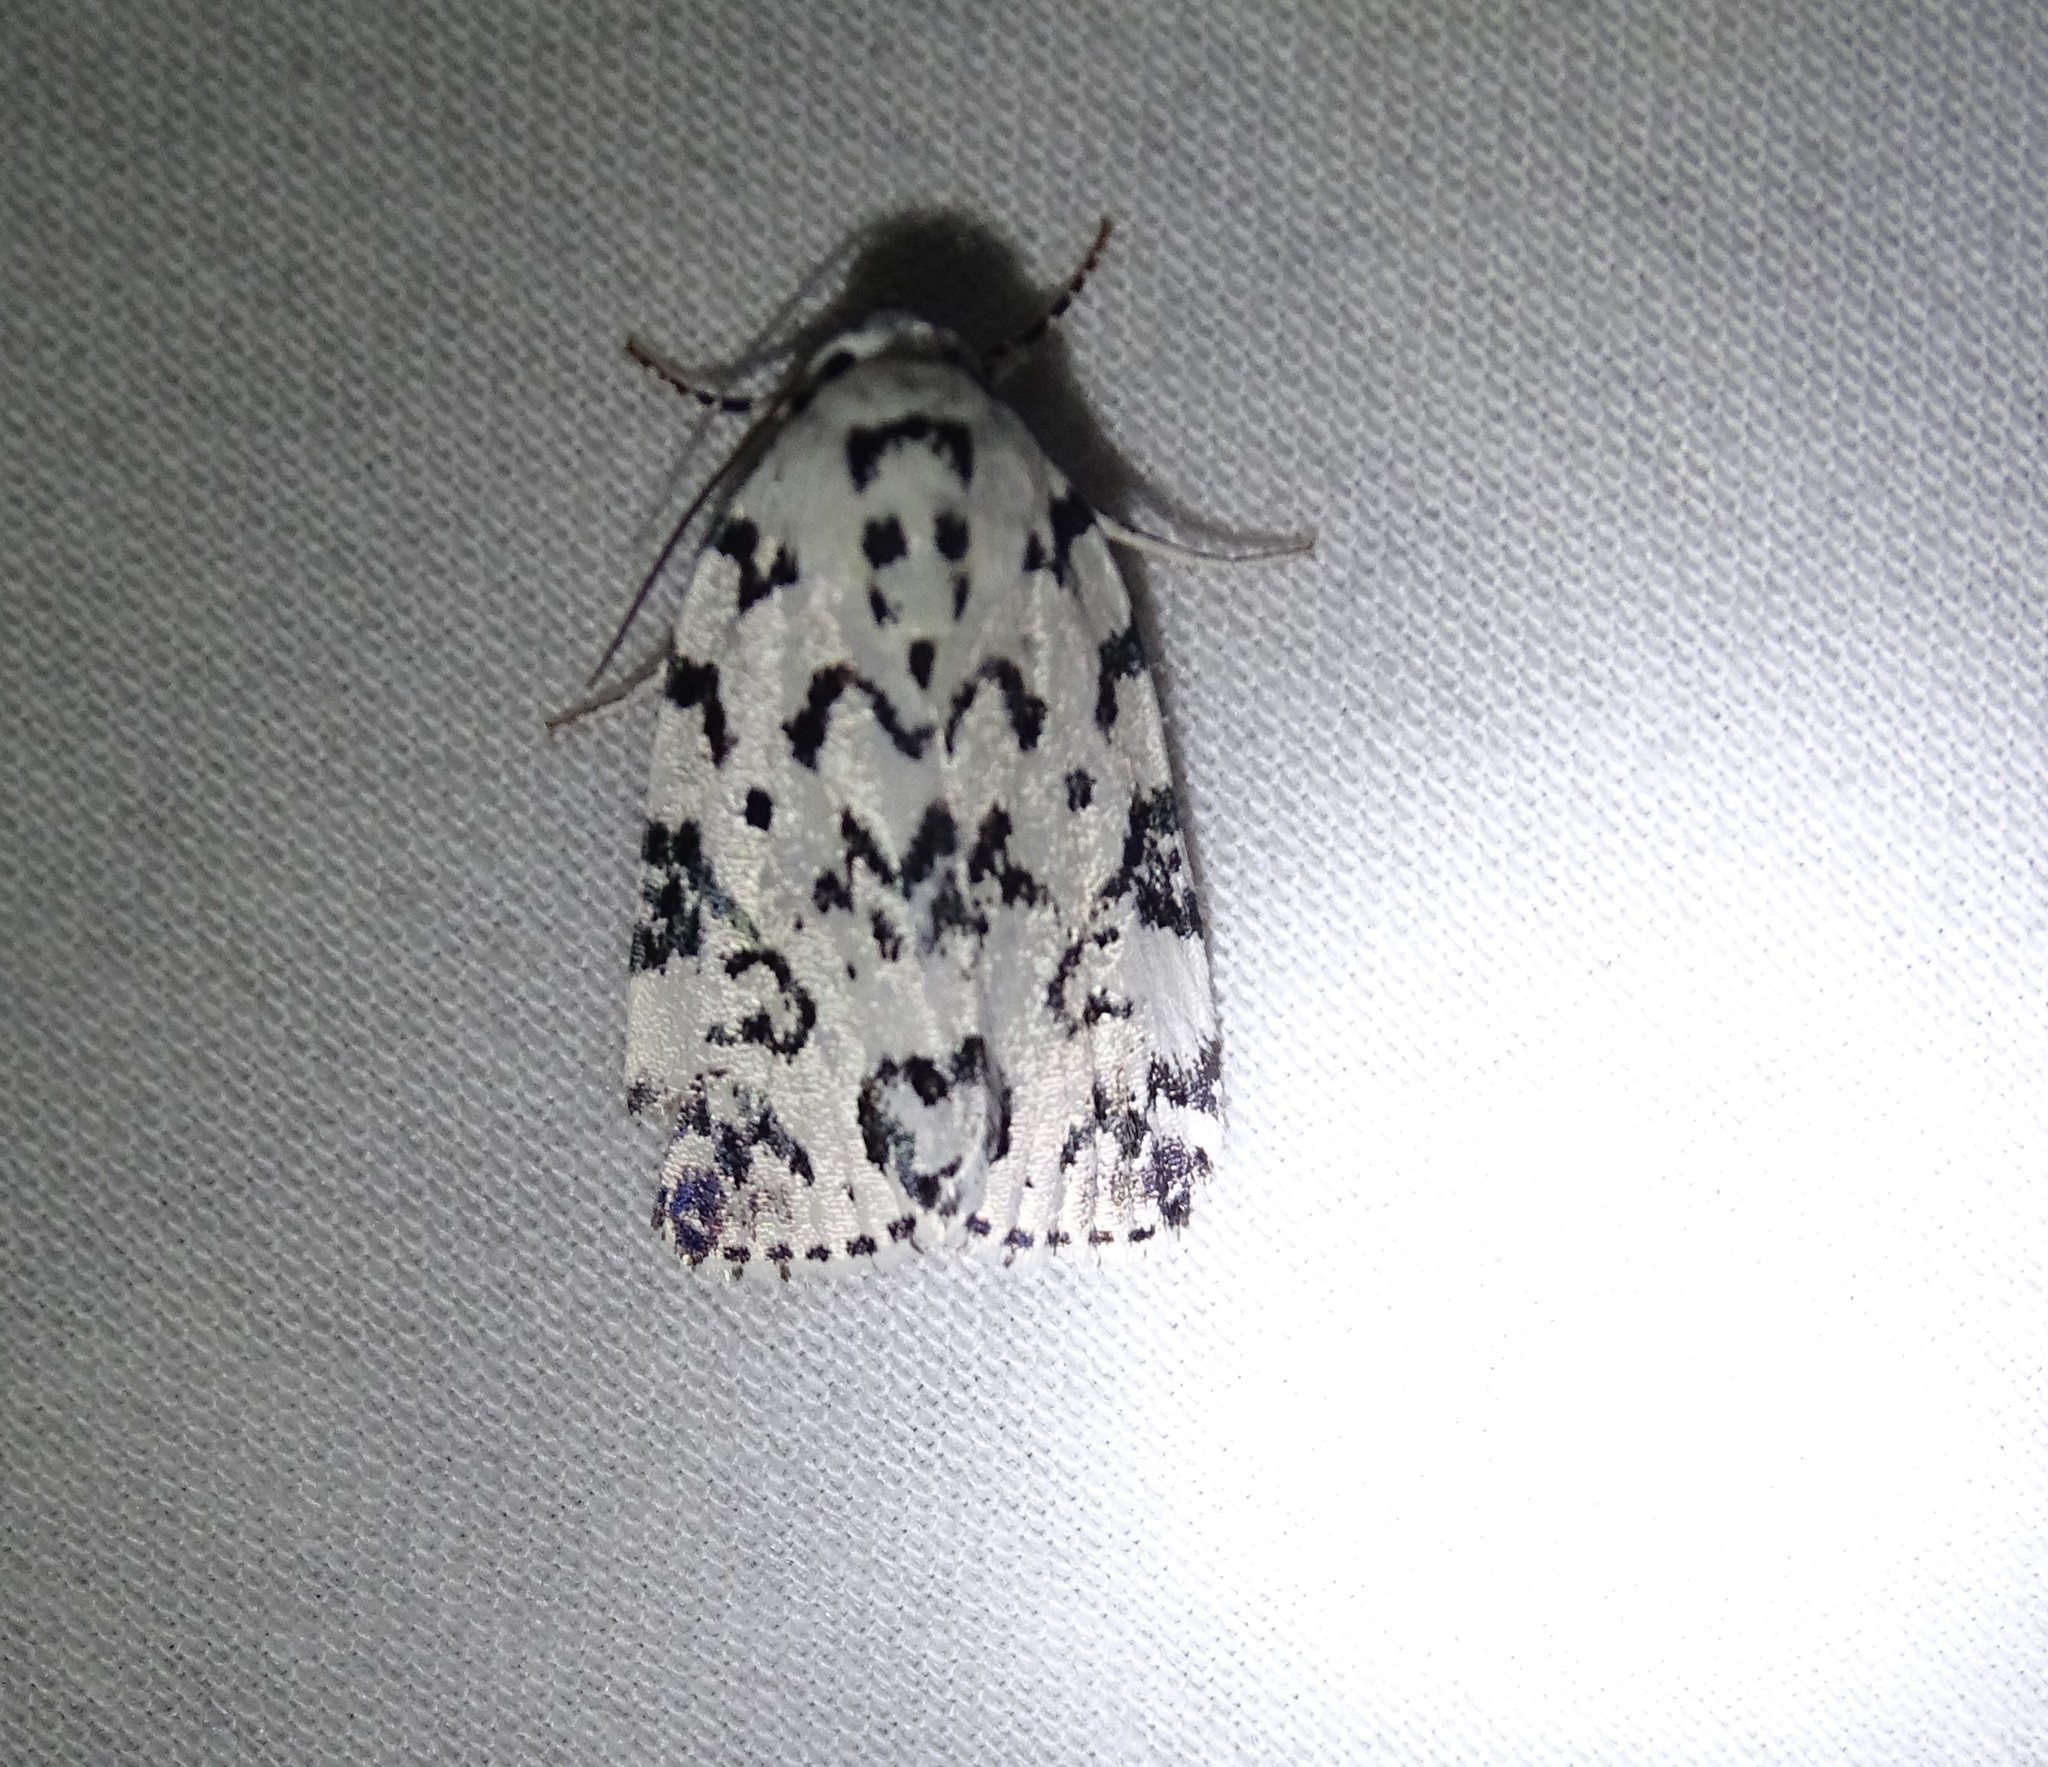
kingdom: Animalia
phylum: Arthropoda
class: Insecta
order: Lepidoptera
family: Noctuidae
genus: Polygrammate
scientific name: Polygrammate hebraeicum
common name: Hebrew moth
